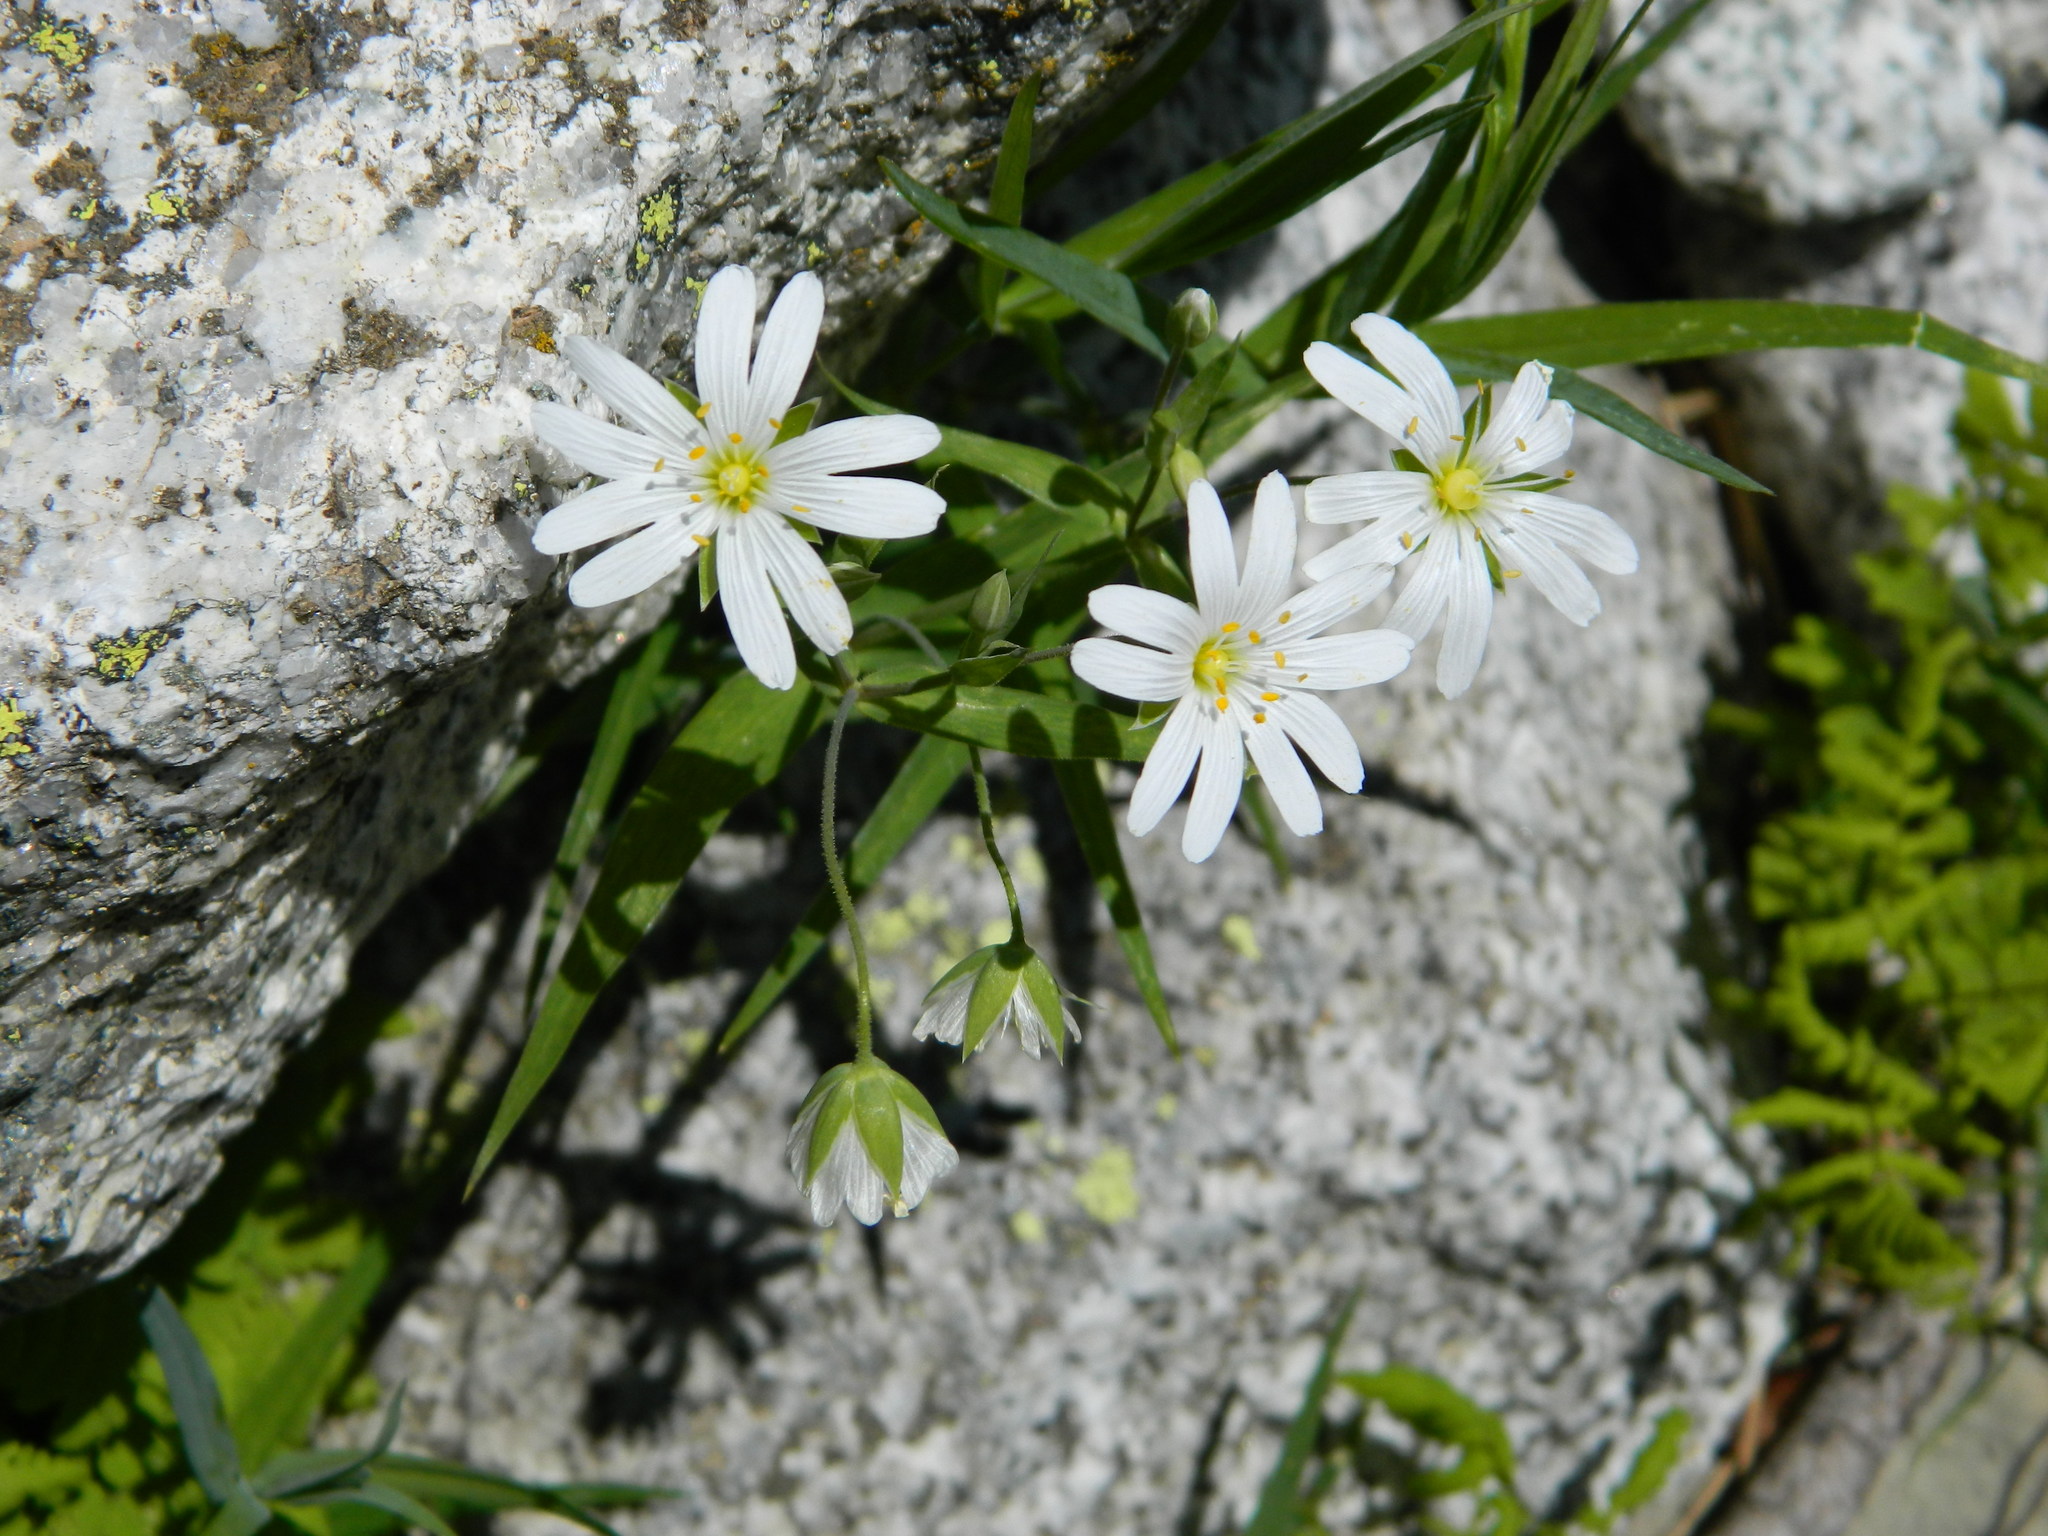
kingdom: Plantae
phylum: Tracheophyta
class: Magnoliopsida
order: Caryophyllales
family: Caryophyllaceae
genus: Rabelera
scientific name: Rabelera holostea
